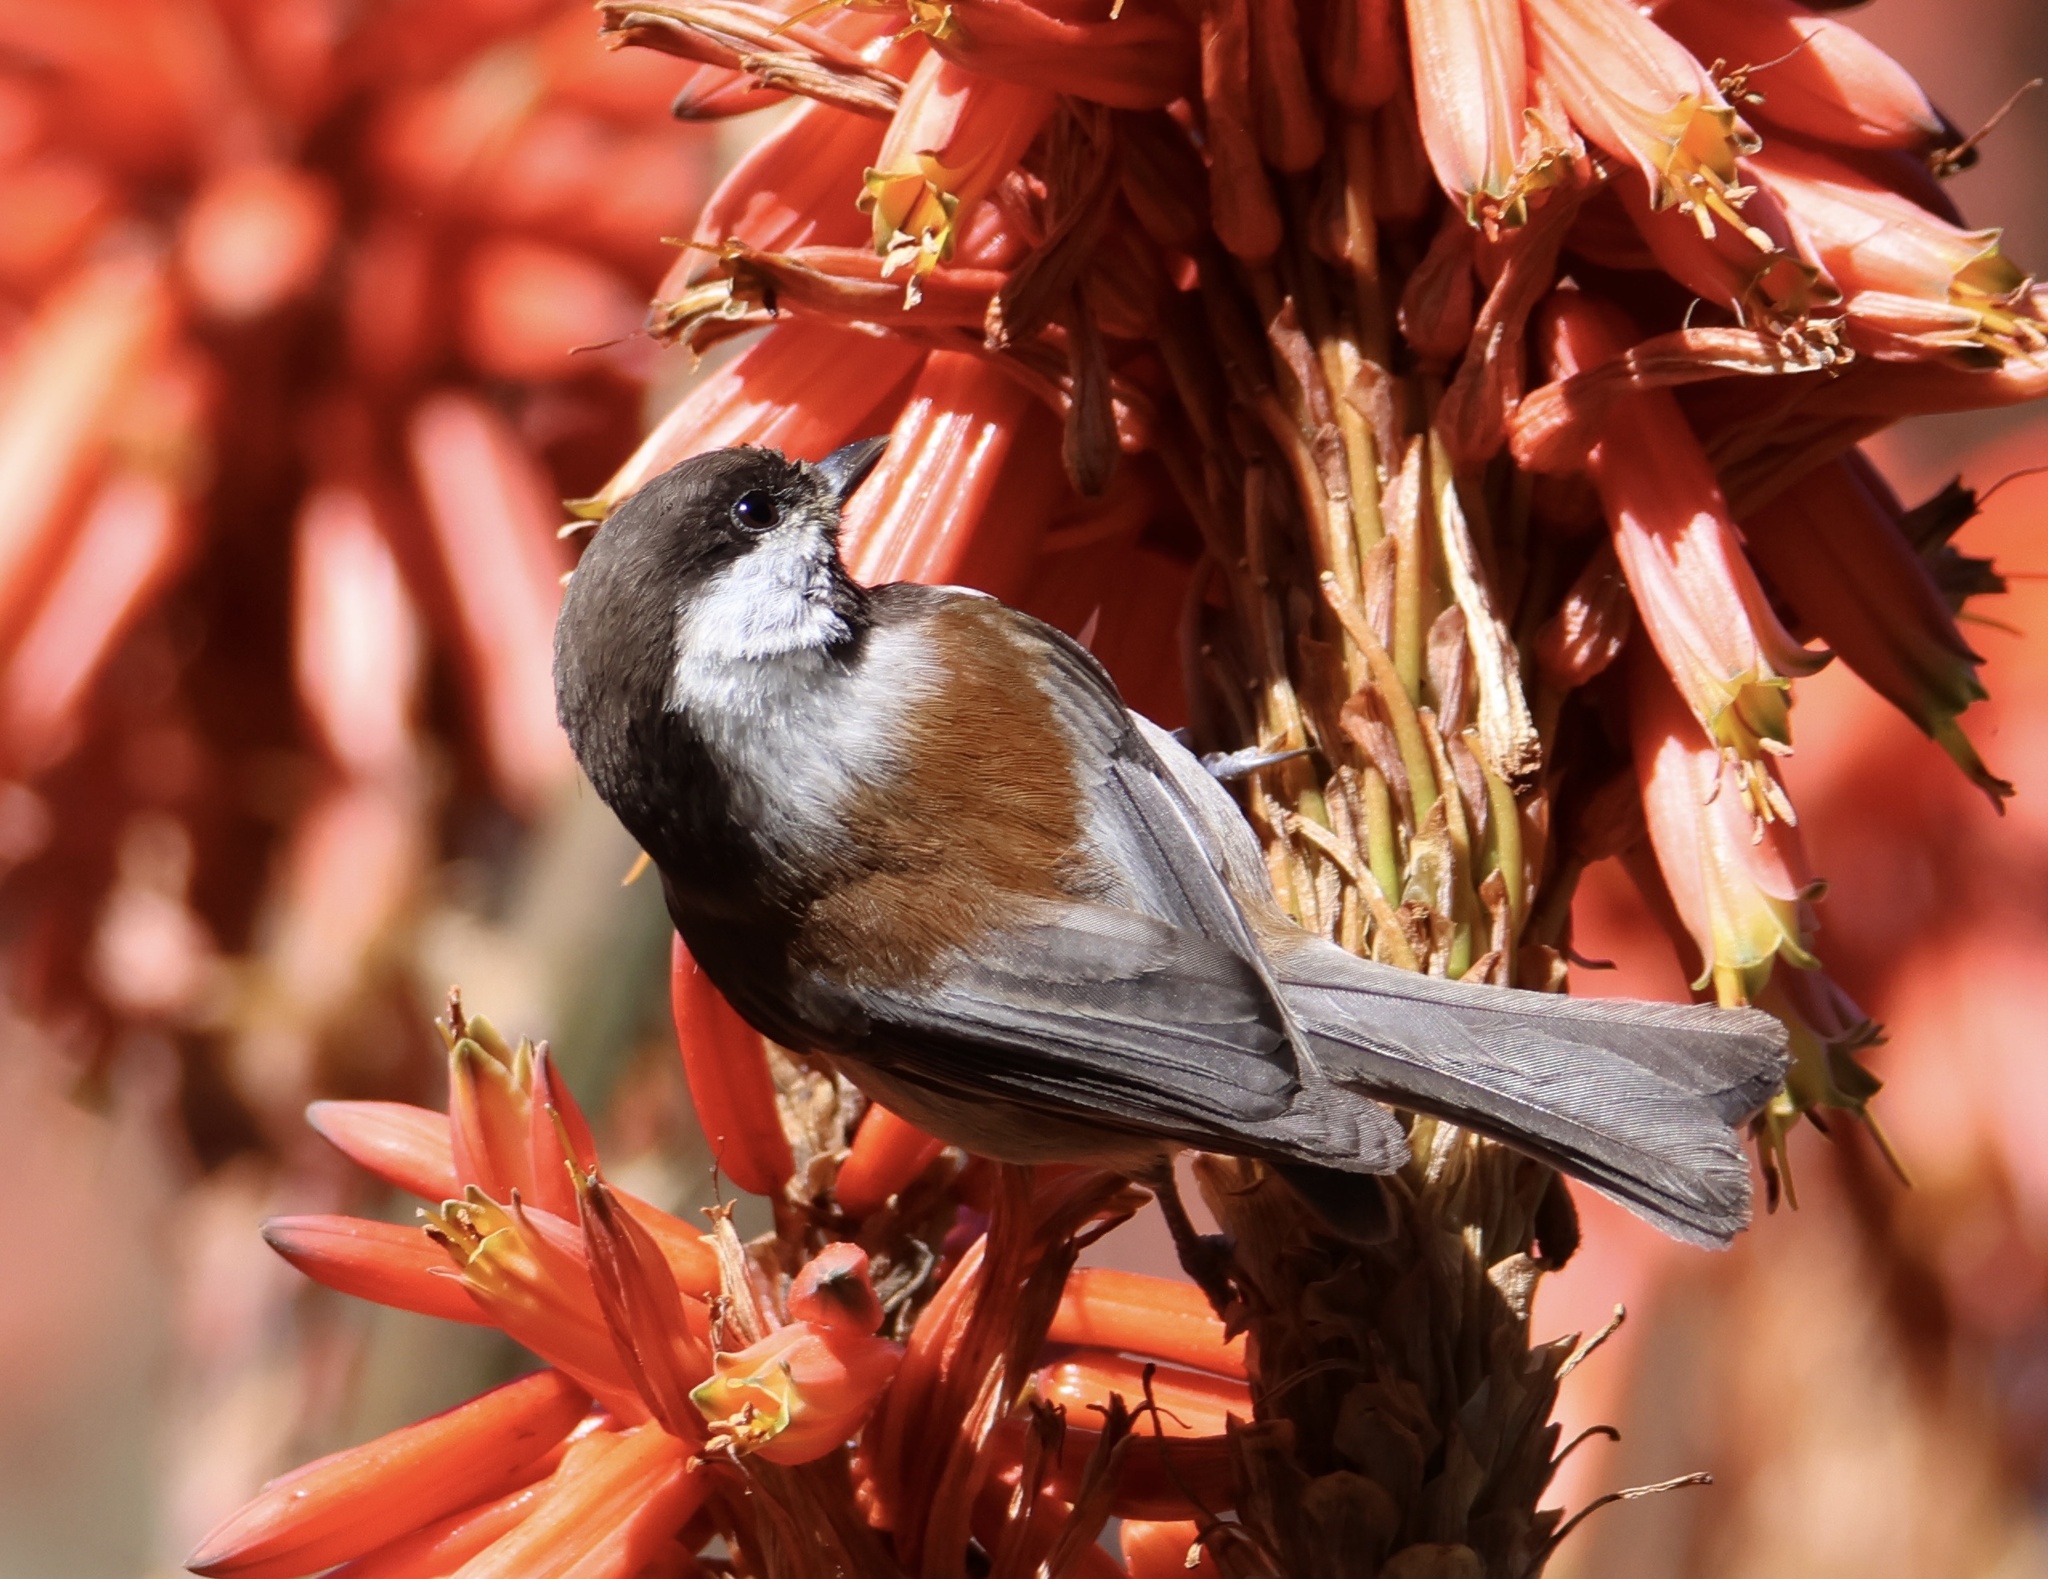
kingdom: Animalia
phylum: Chordata
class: Aves
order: Passeriformes
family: Paridae
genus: Poecile
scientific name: Poecile rufescens
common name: Chestnut-backed chickadee
